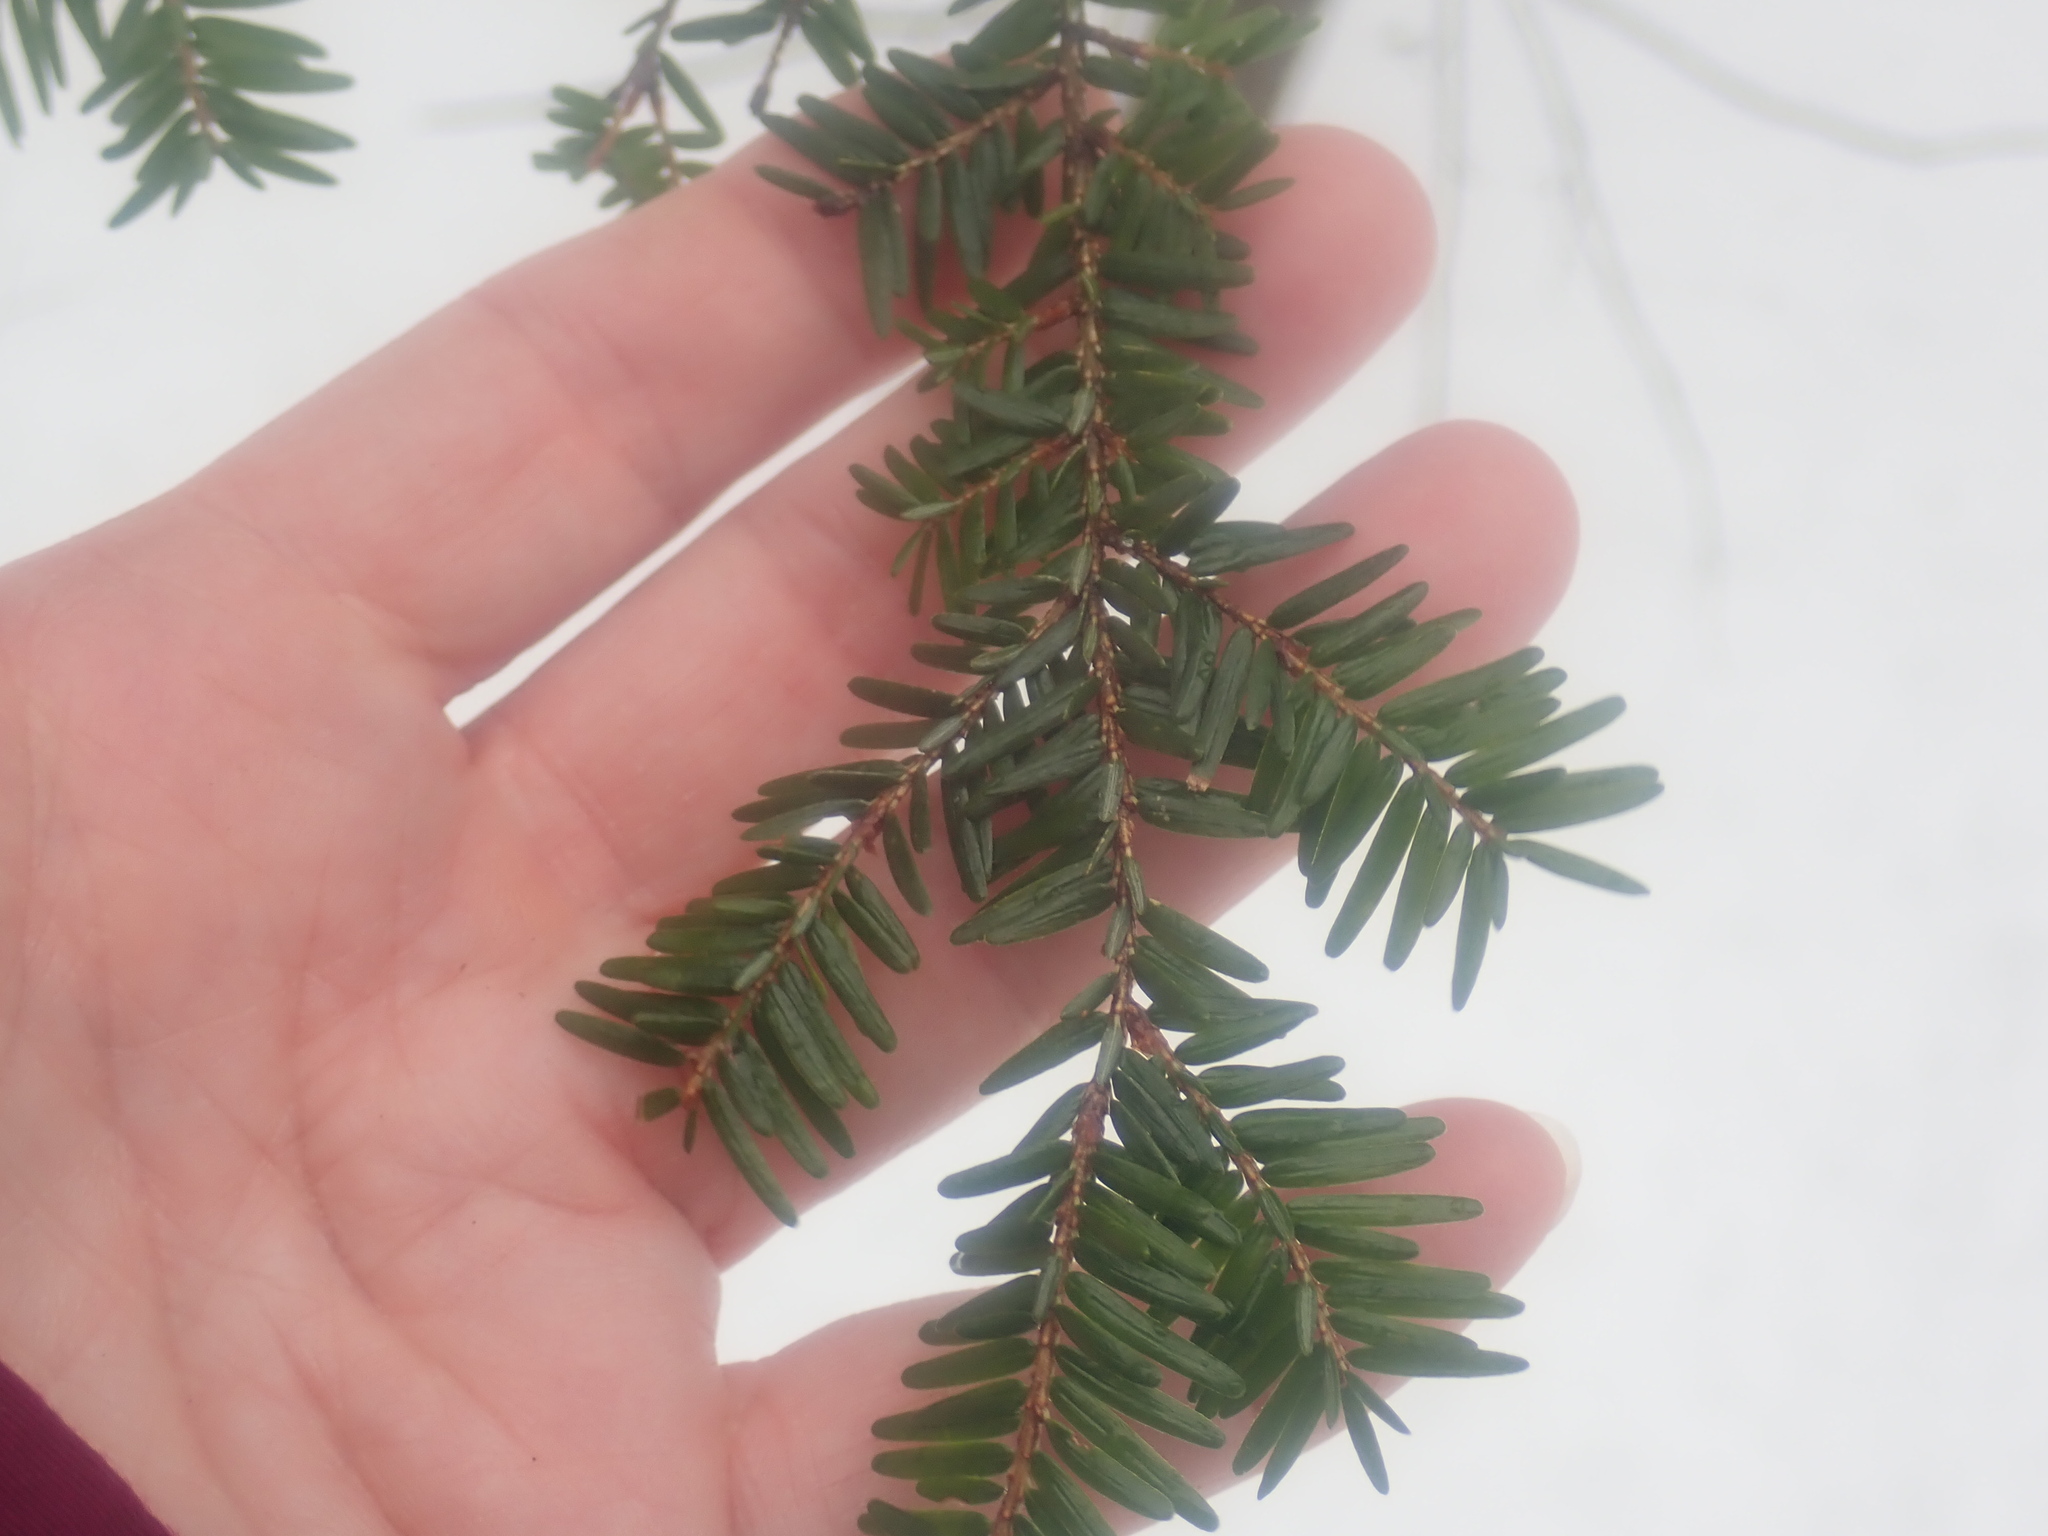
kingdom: Plantae
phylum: Tracheophyta
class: Pinopsida
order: Pinales
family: Pinaceae
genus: Tsuga
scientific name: Tsuga canadensis
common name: Eastern hemlock
